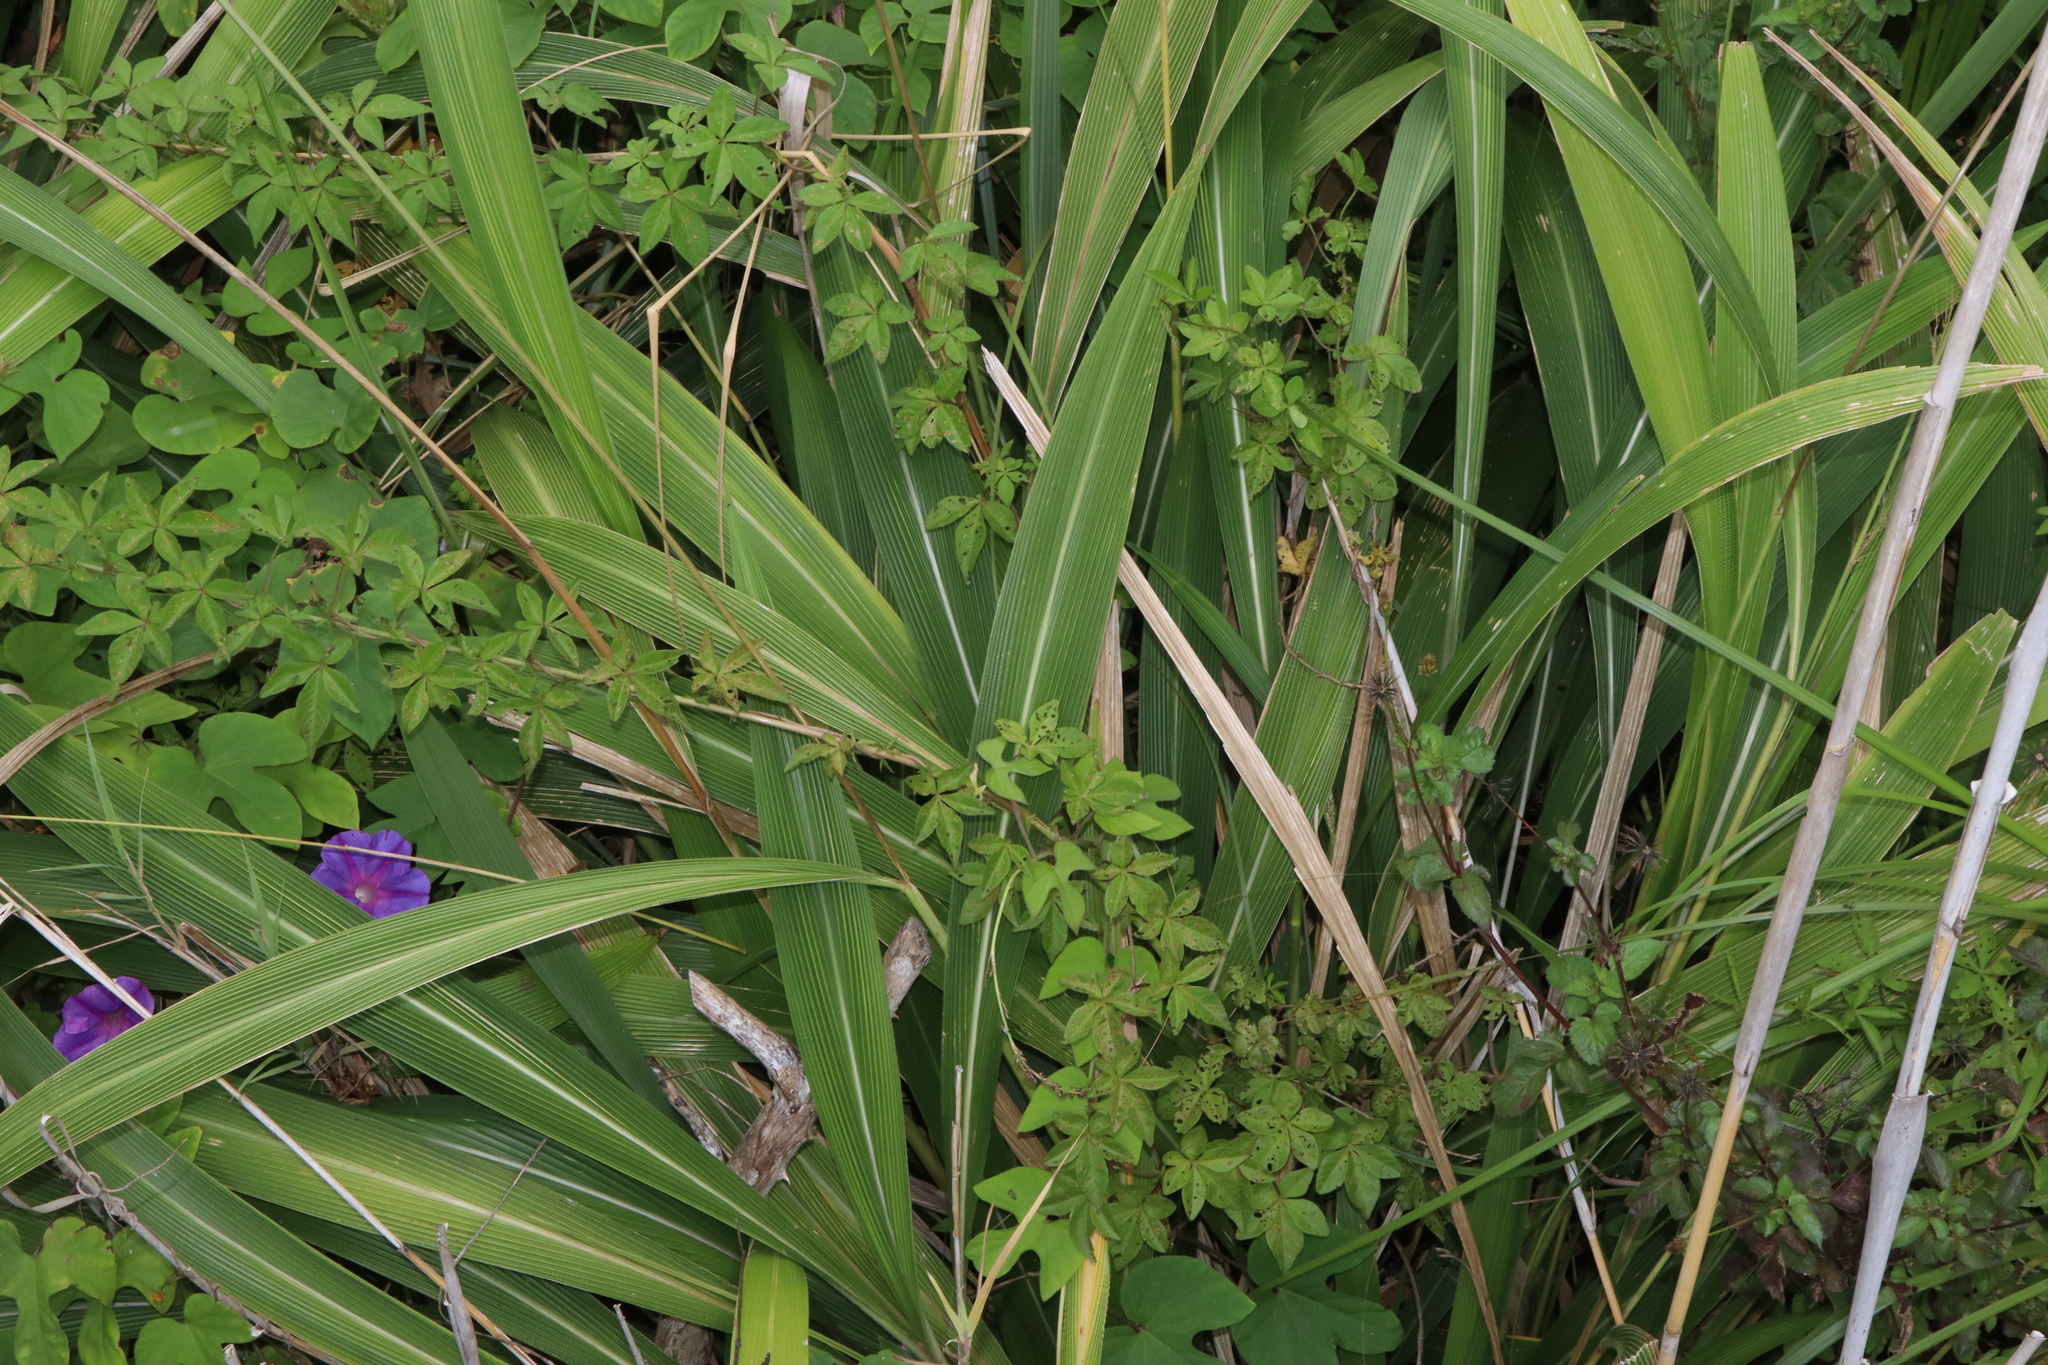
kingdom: Plantae
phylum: Tracheophyta
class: Liliopsida
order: Poales
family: Poaceae
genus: Setaria
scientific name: Setaria palmifolia
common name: Broadleaved bristlegrass
